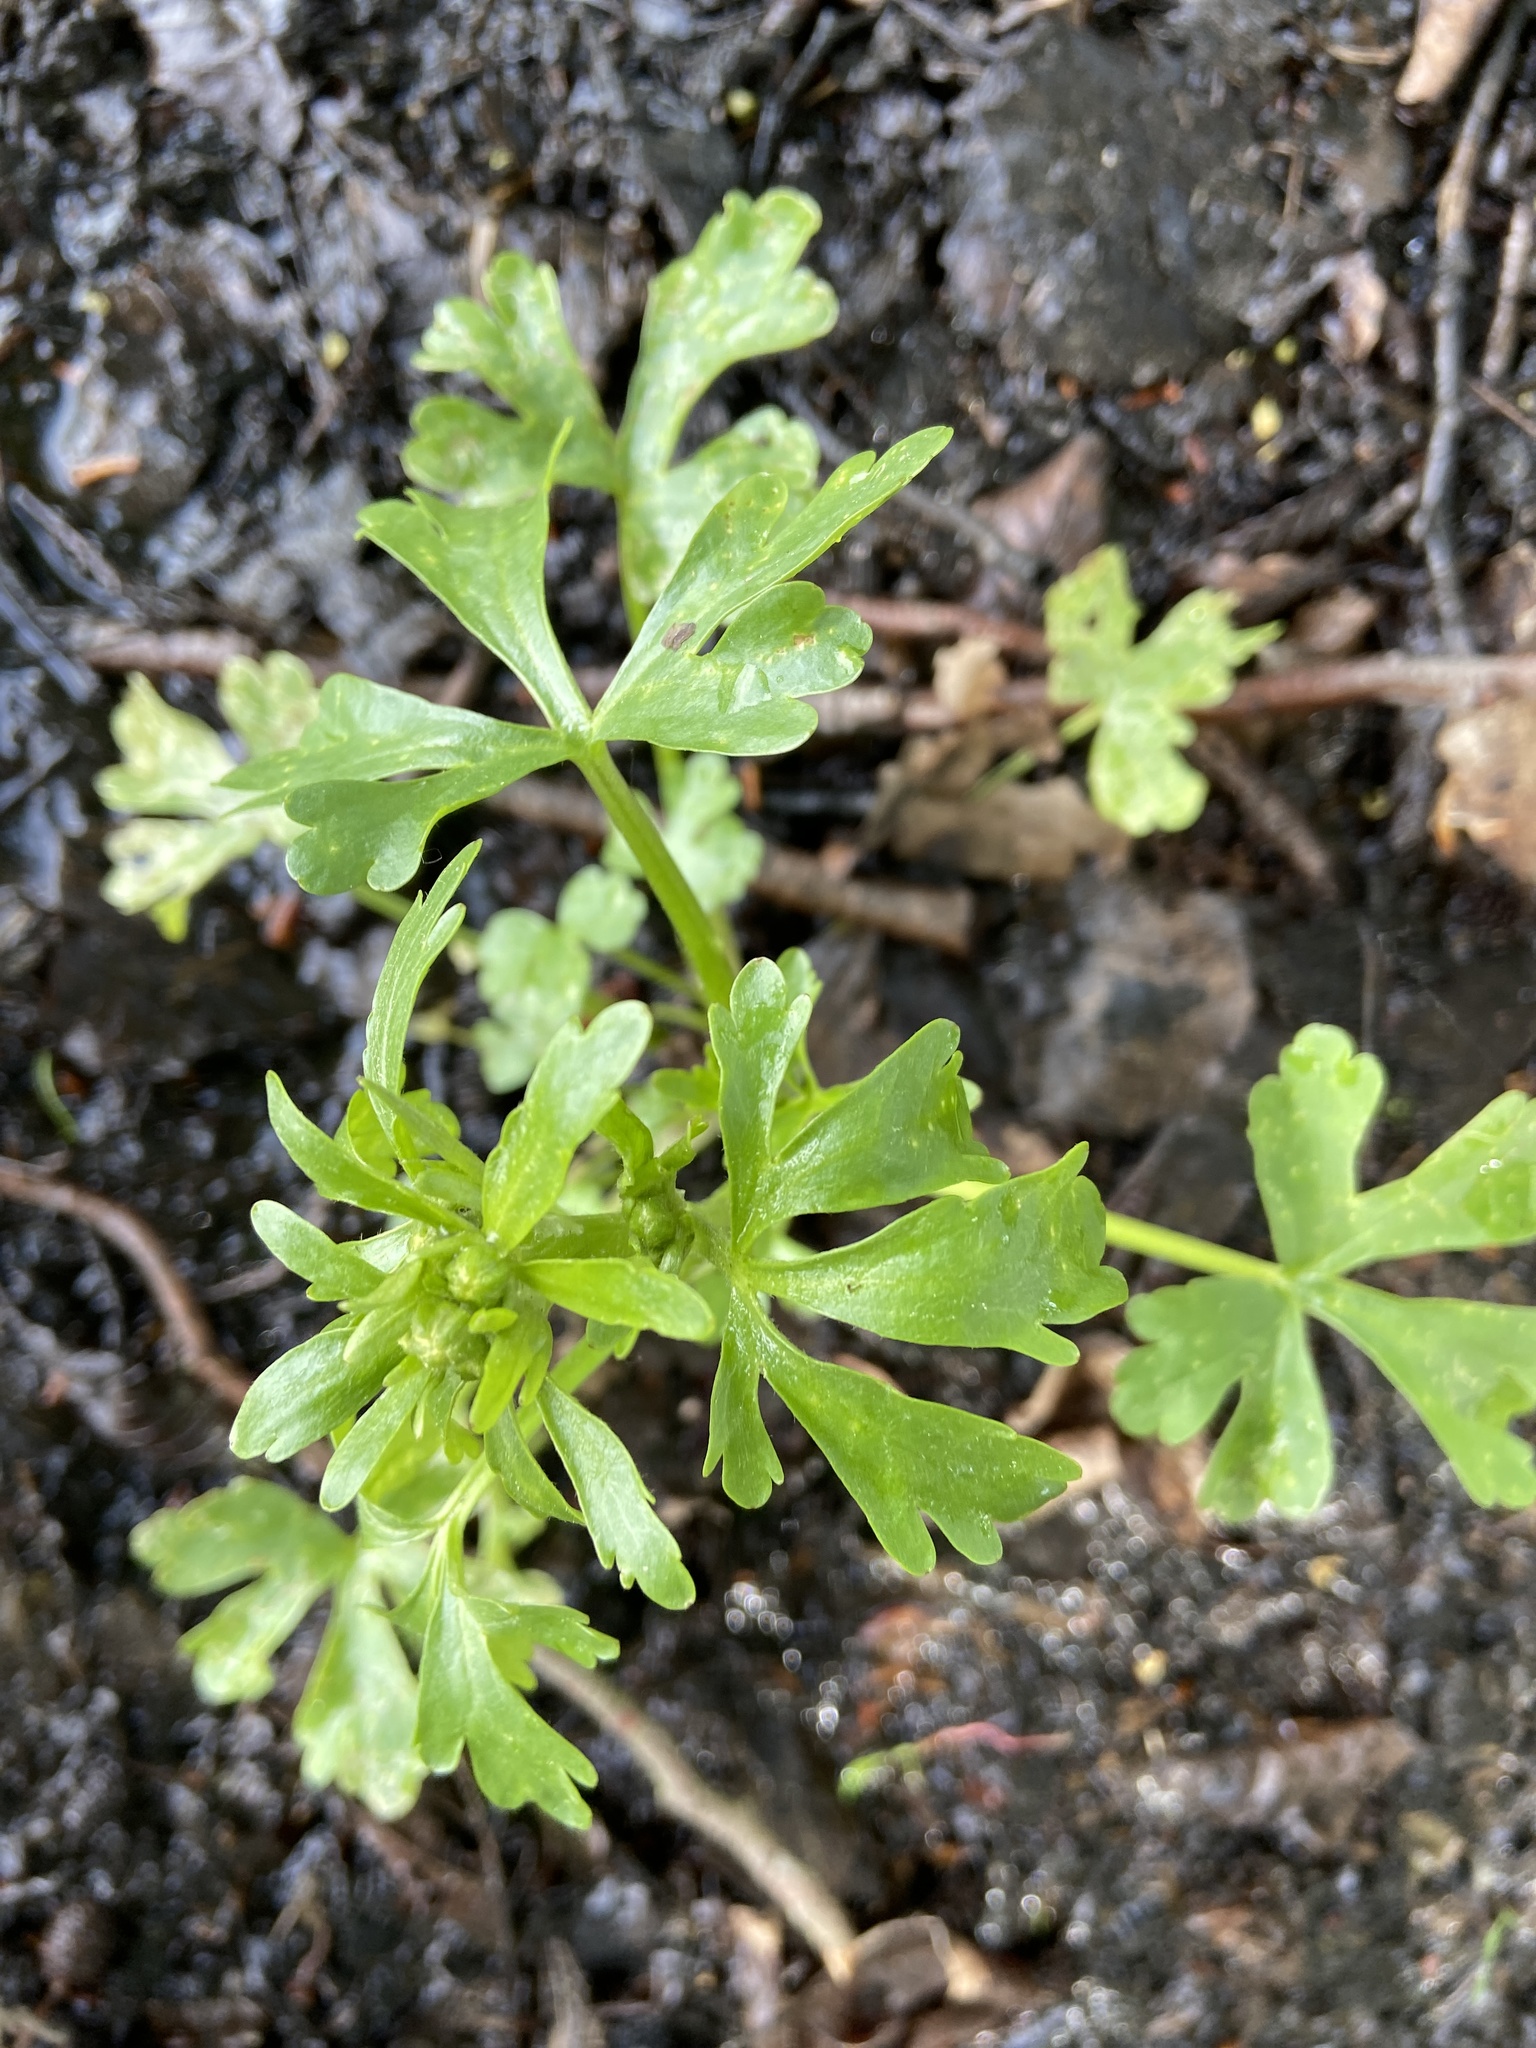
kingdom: Plantae
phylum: Tracheophyta
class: Magnoliopsida
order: Ranunculales
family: Ranunculaceae
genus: Ranunculus
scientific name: Ranunculus sceleratus
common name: Celery-leaved buttercup
